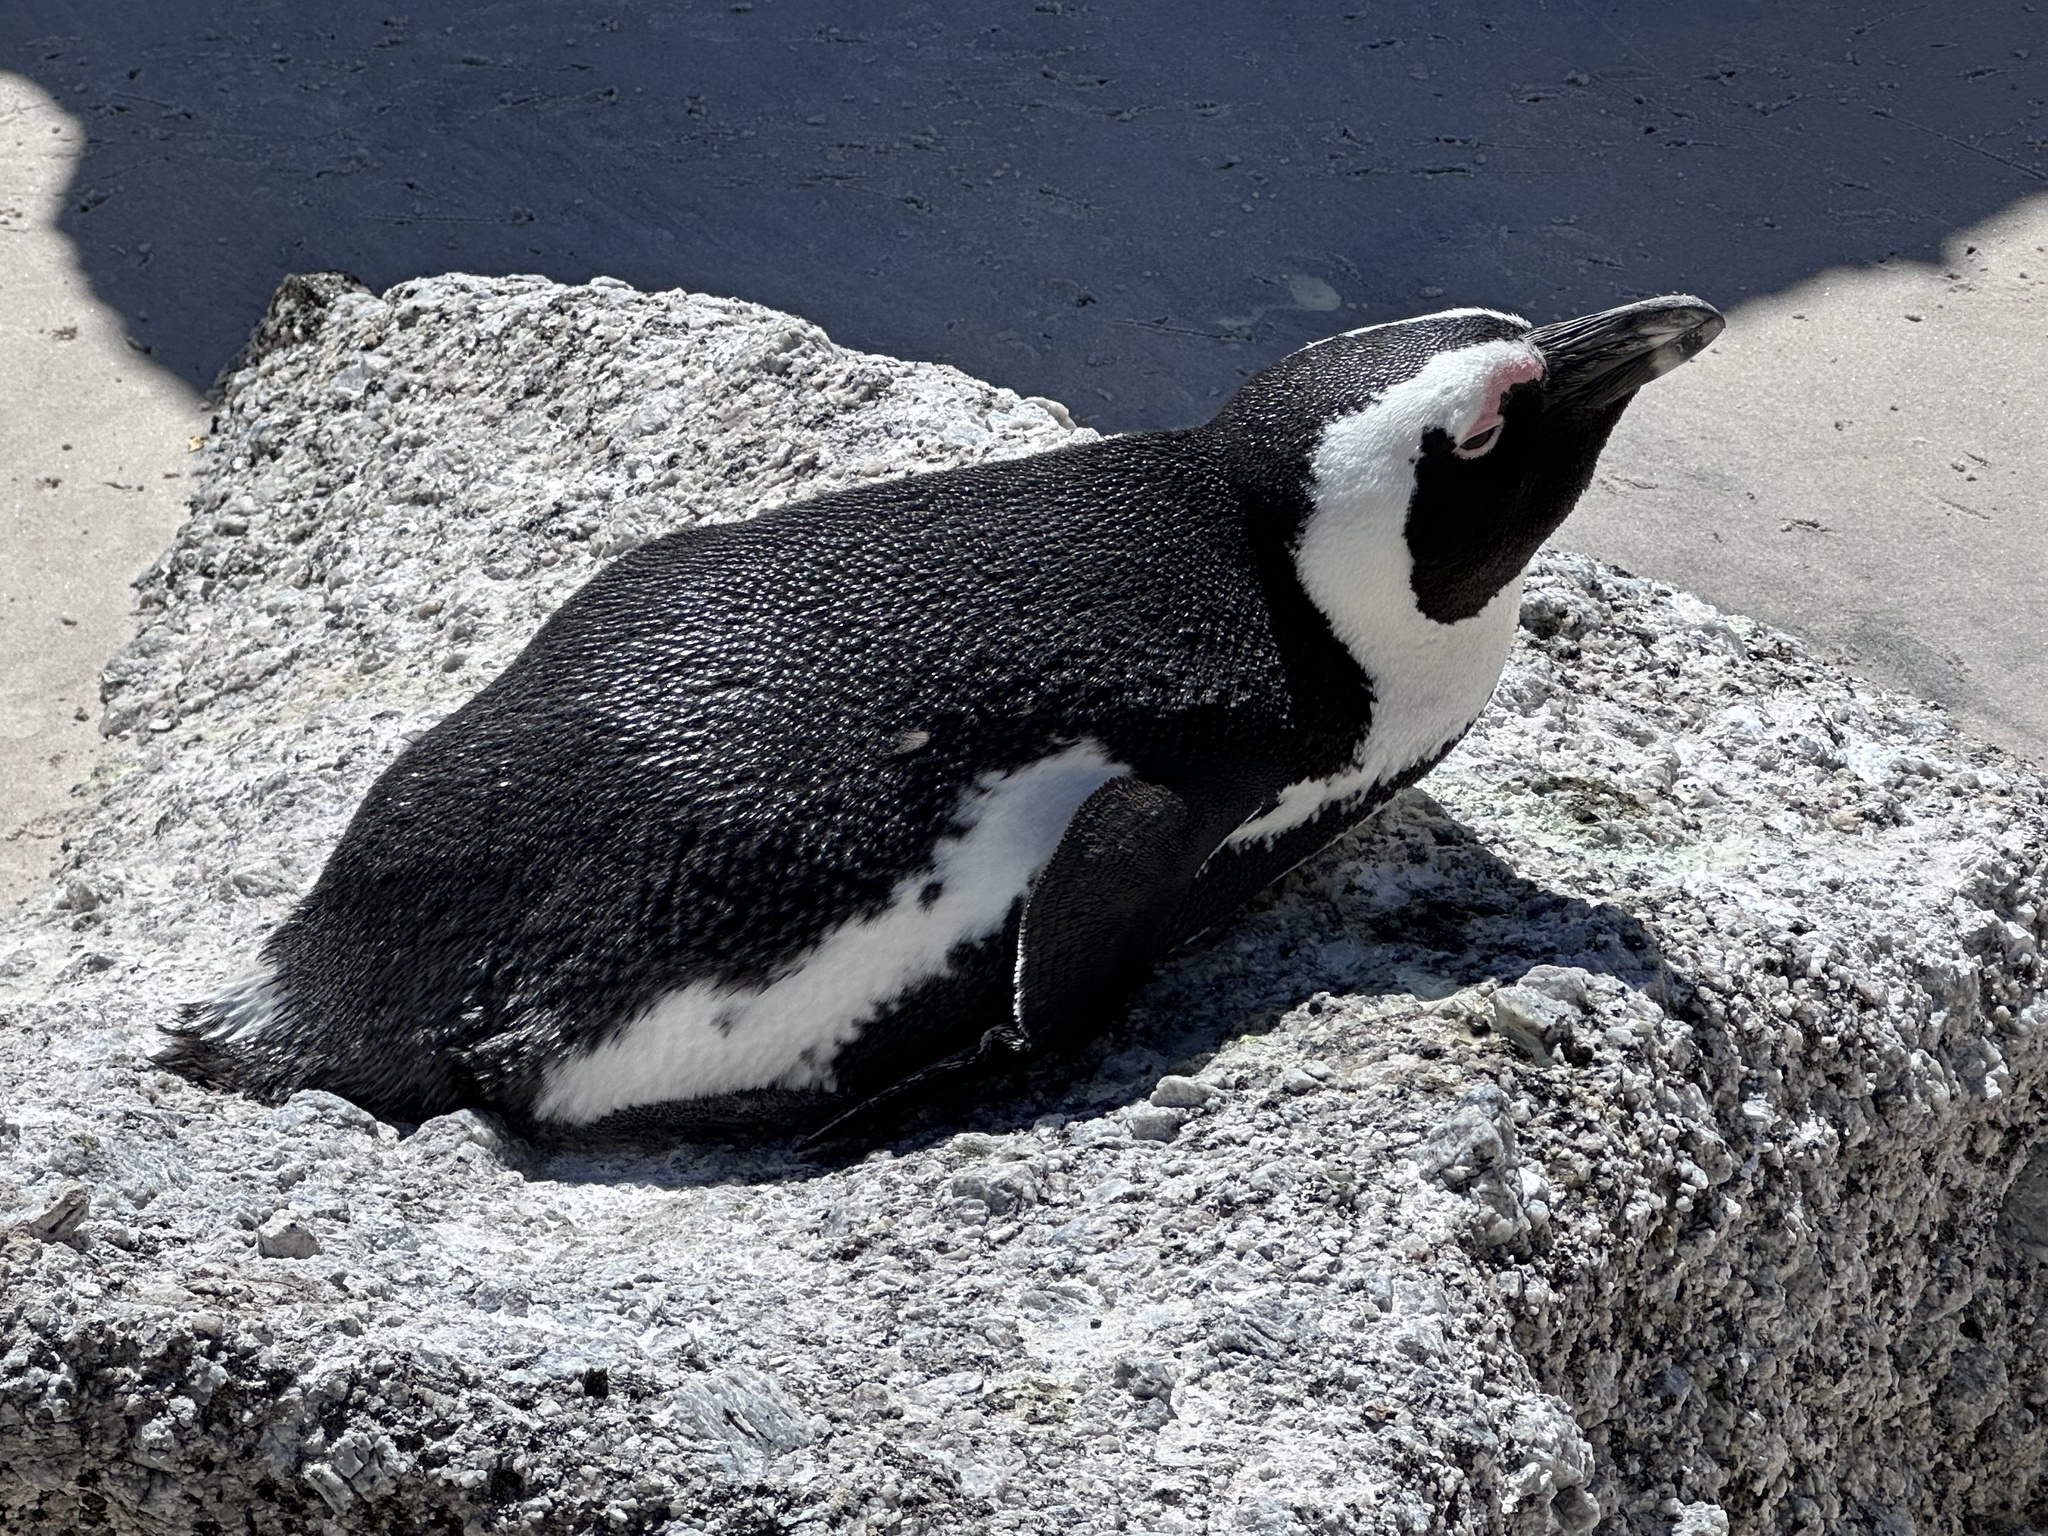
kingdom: Animalia
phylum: Chordata
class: Aves
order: Sphenisciformes
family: Spheniscidae
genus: Spheniscus
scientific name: Spheniscus demersus
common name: African penguin
